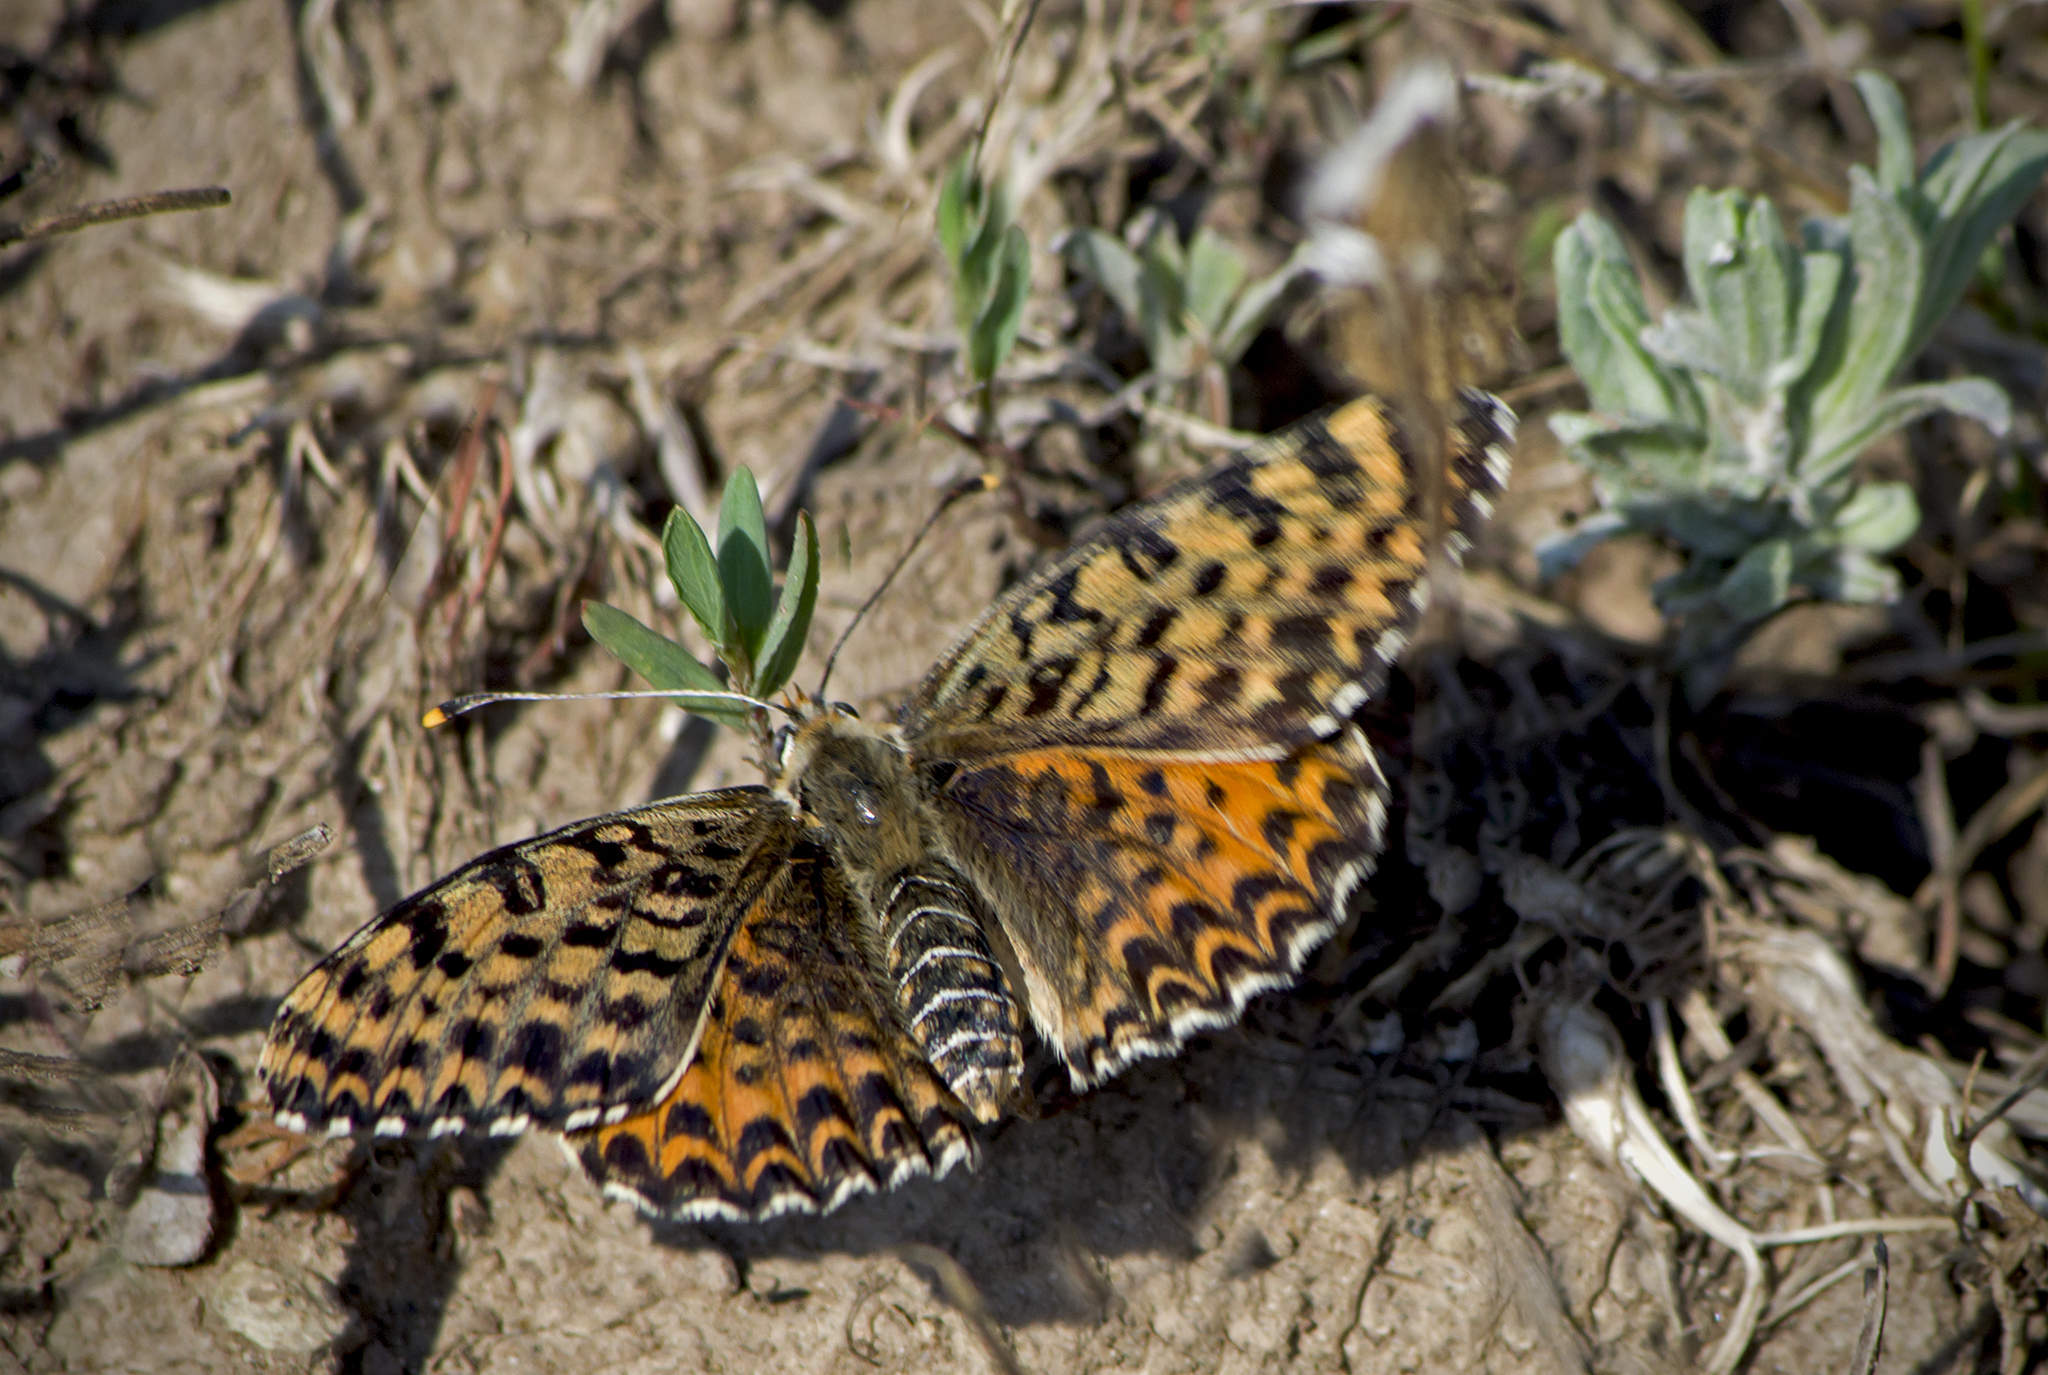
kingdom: Animalia
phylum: Arthropoda
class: Insecta
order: Lepidoptera
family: Nymphalidae
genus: Melitaea
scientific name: Melitaea didyma
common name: Spotted fritillary
